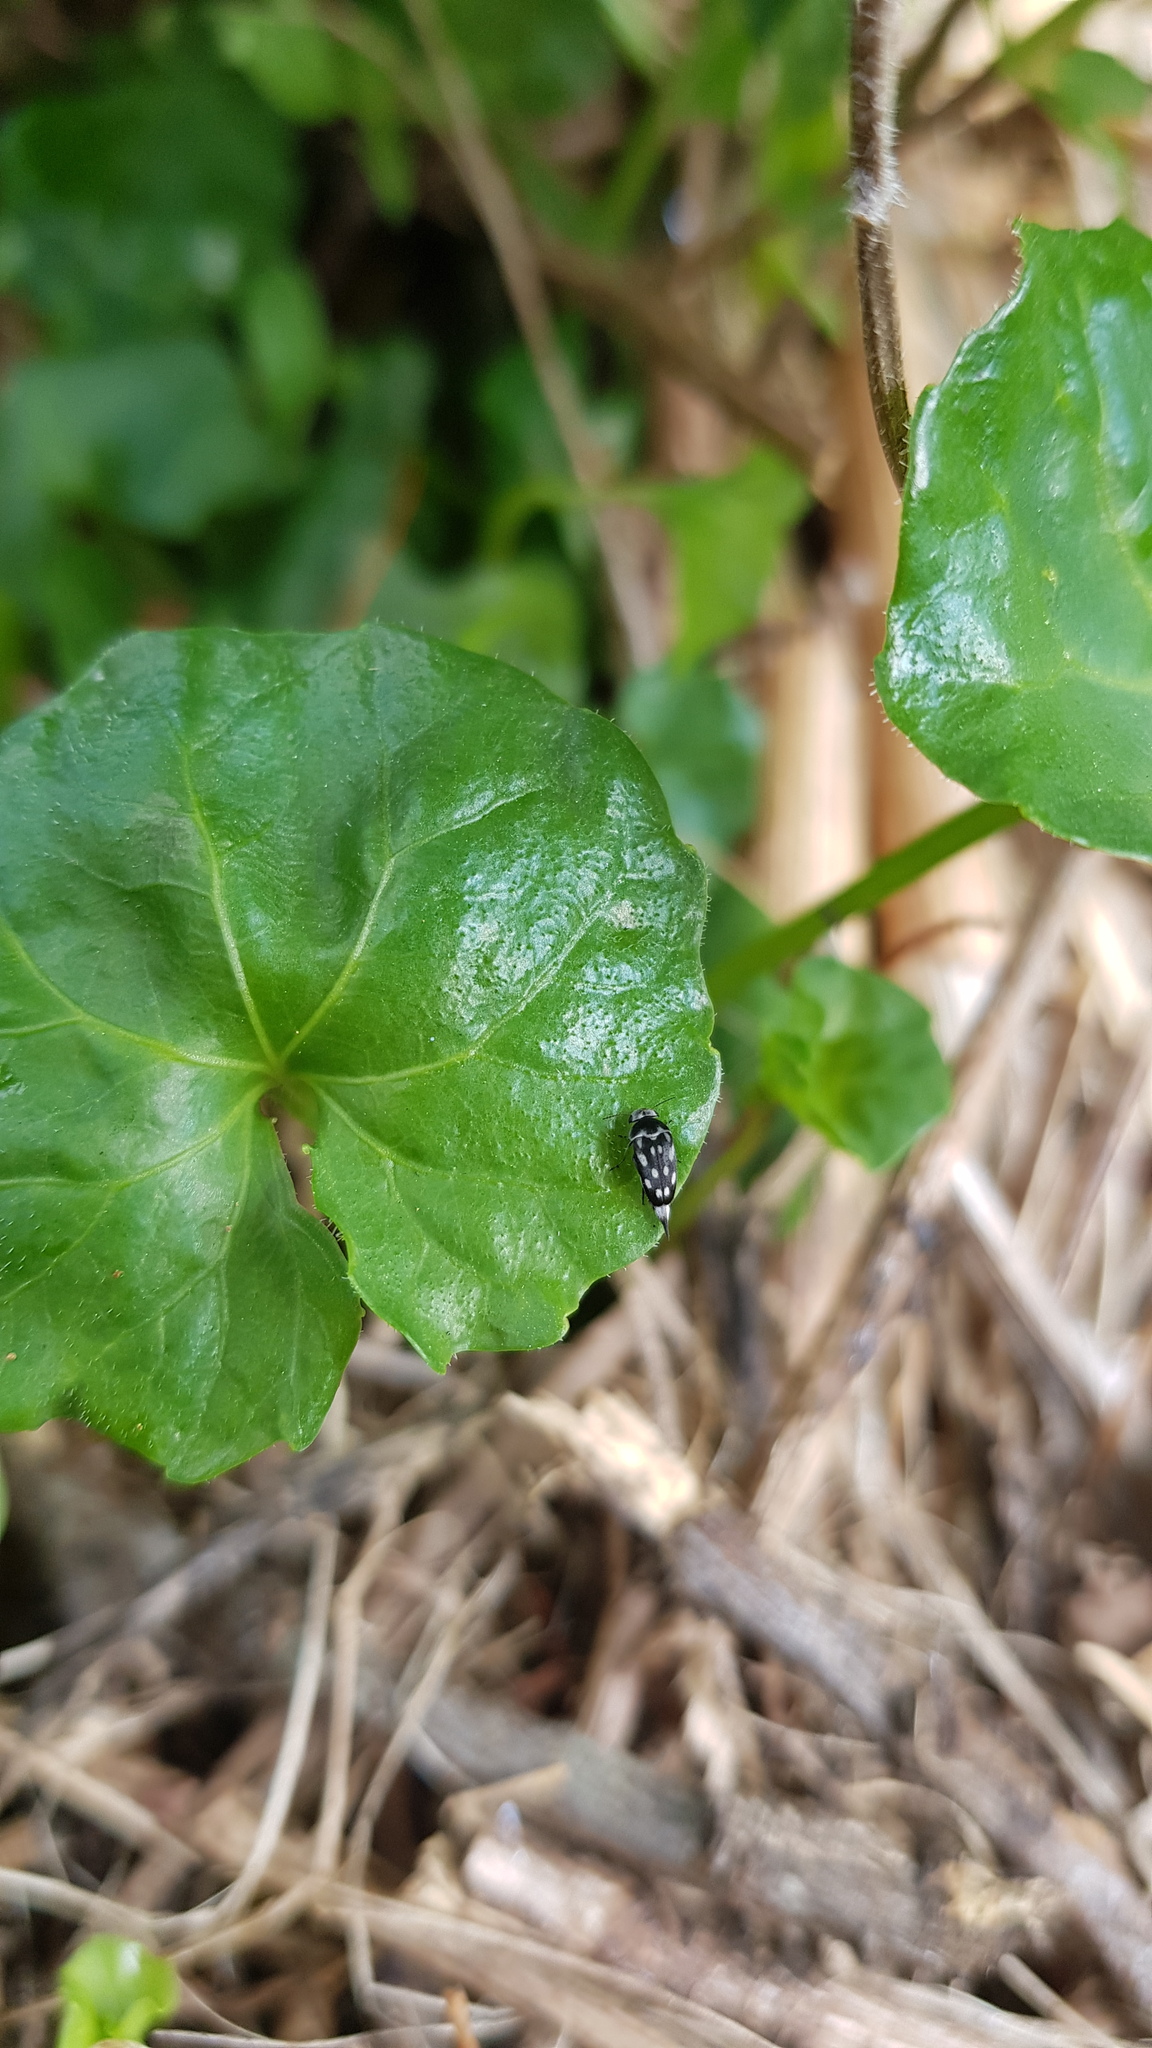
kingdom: Animalia
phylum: Arthropoda
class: Insecta
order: Coleoptera
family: Mordellidae
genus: Mordella
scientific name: Mordella
